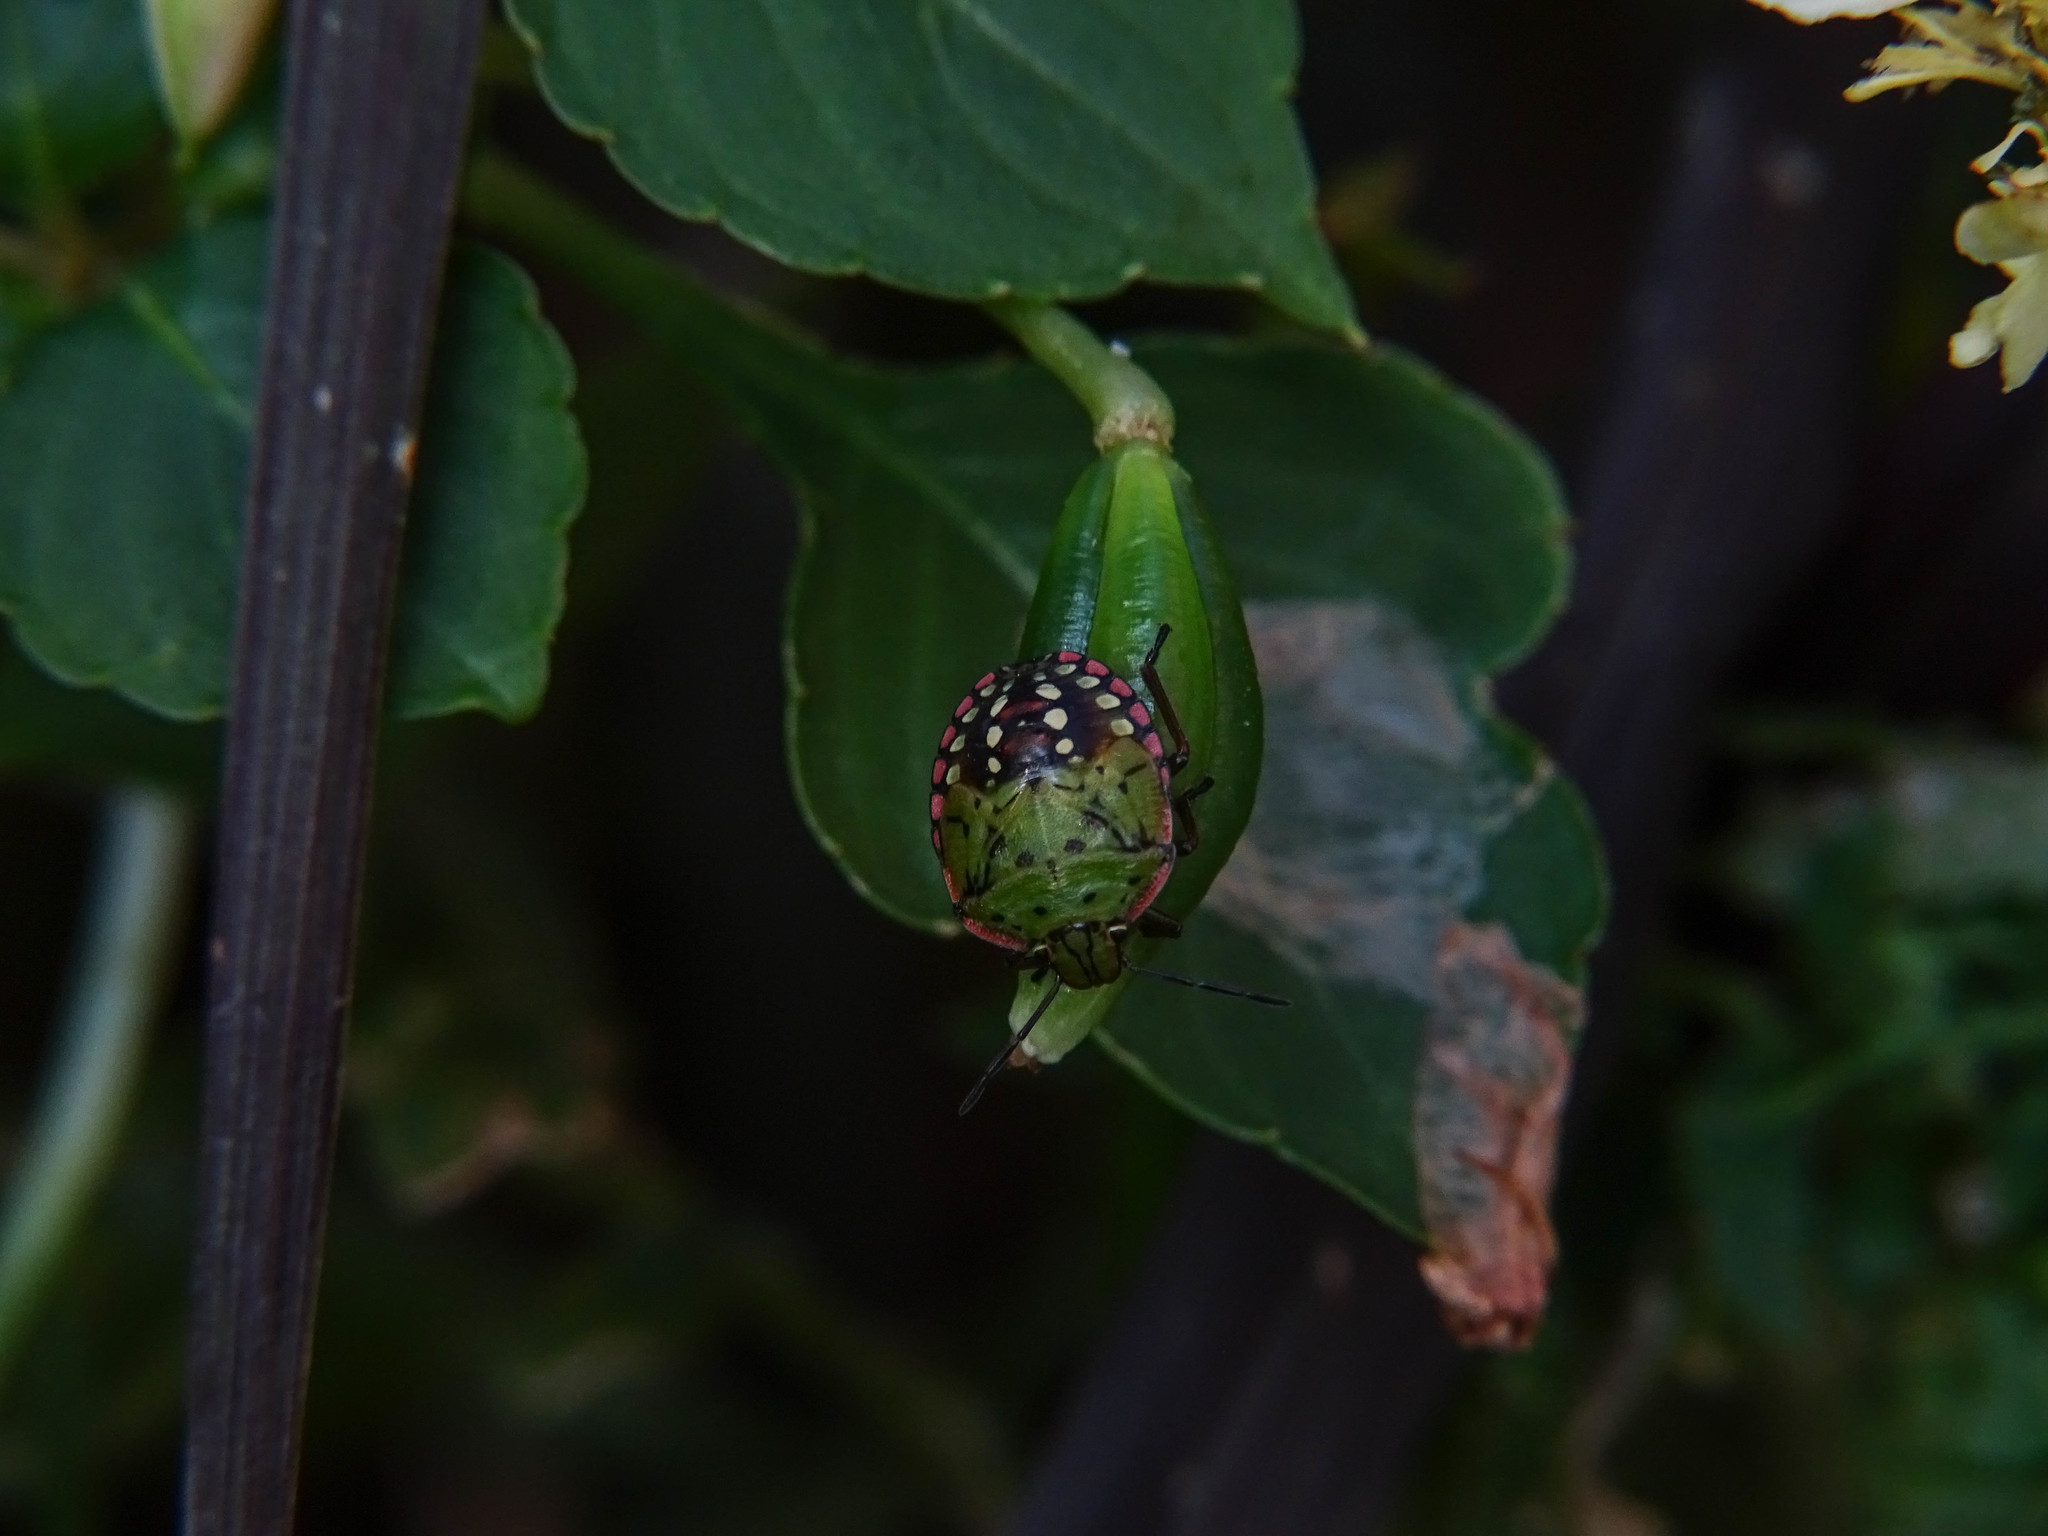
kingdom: Animalia
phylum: Arthropoda
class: Insecta
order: Hemiptera
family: Pentatomidae
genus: Nezara
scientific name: Nezara viridula
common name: Southern green stink bug
